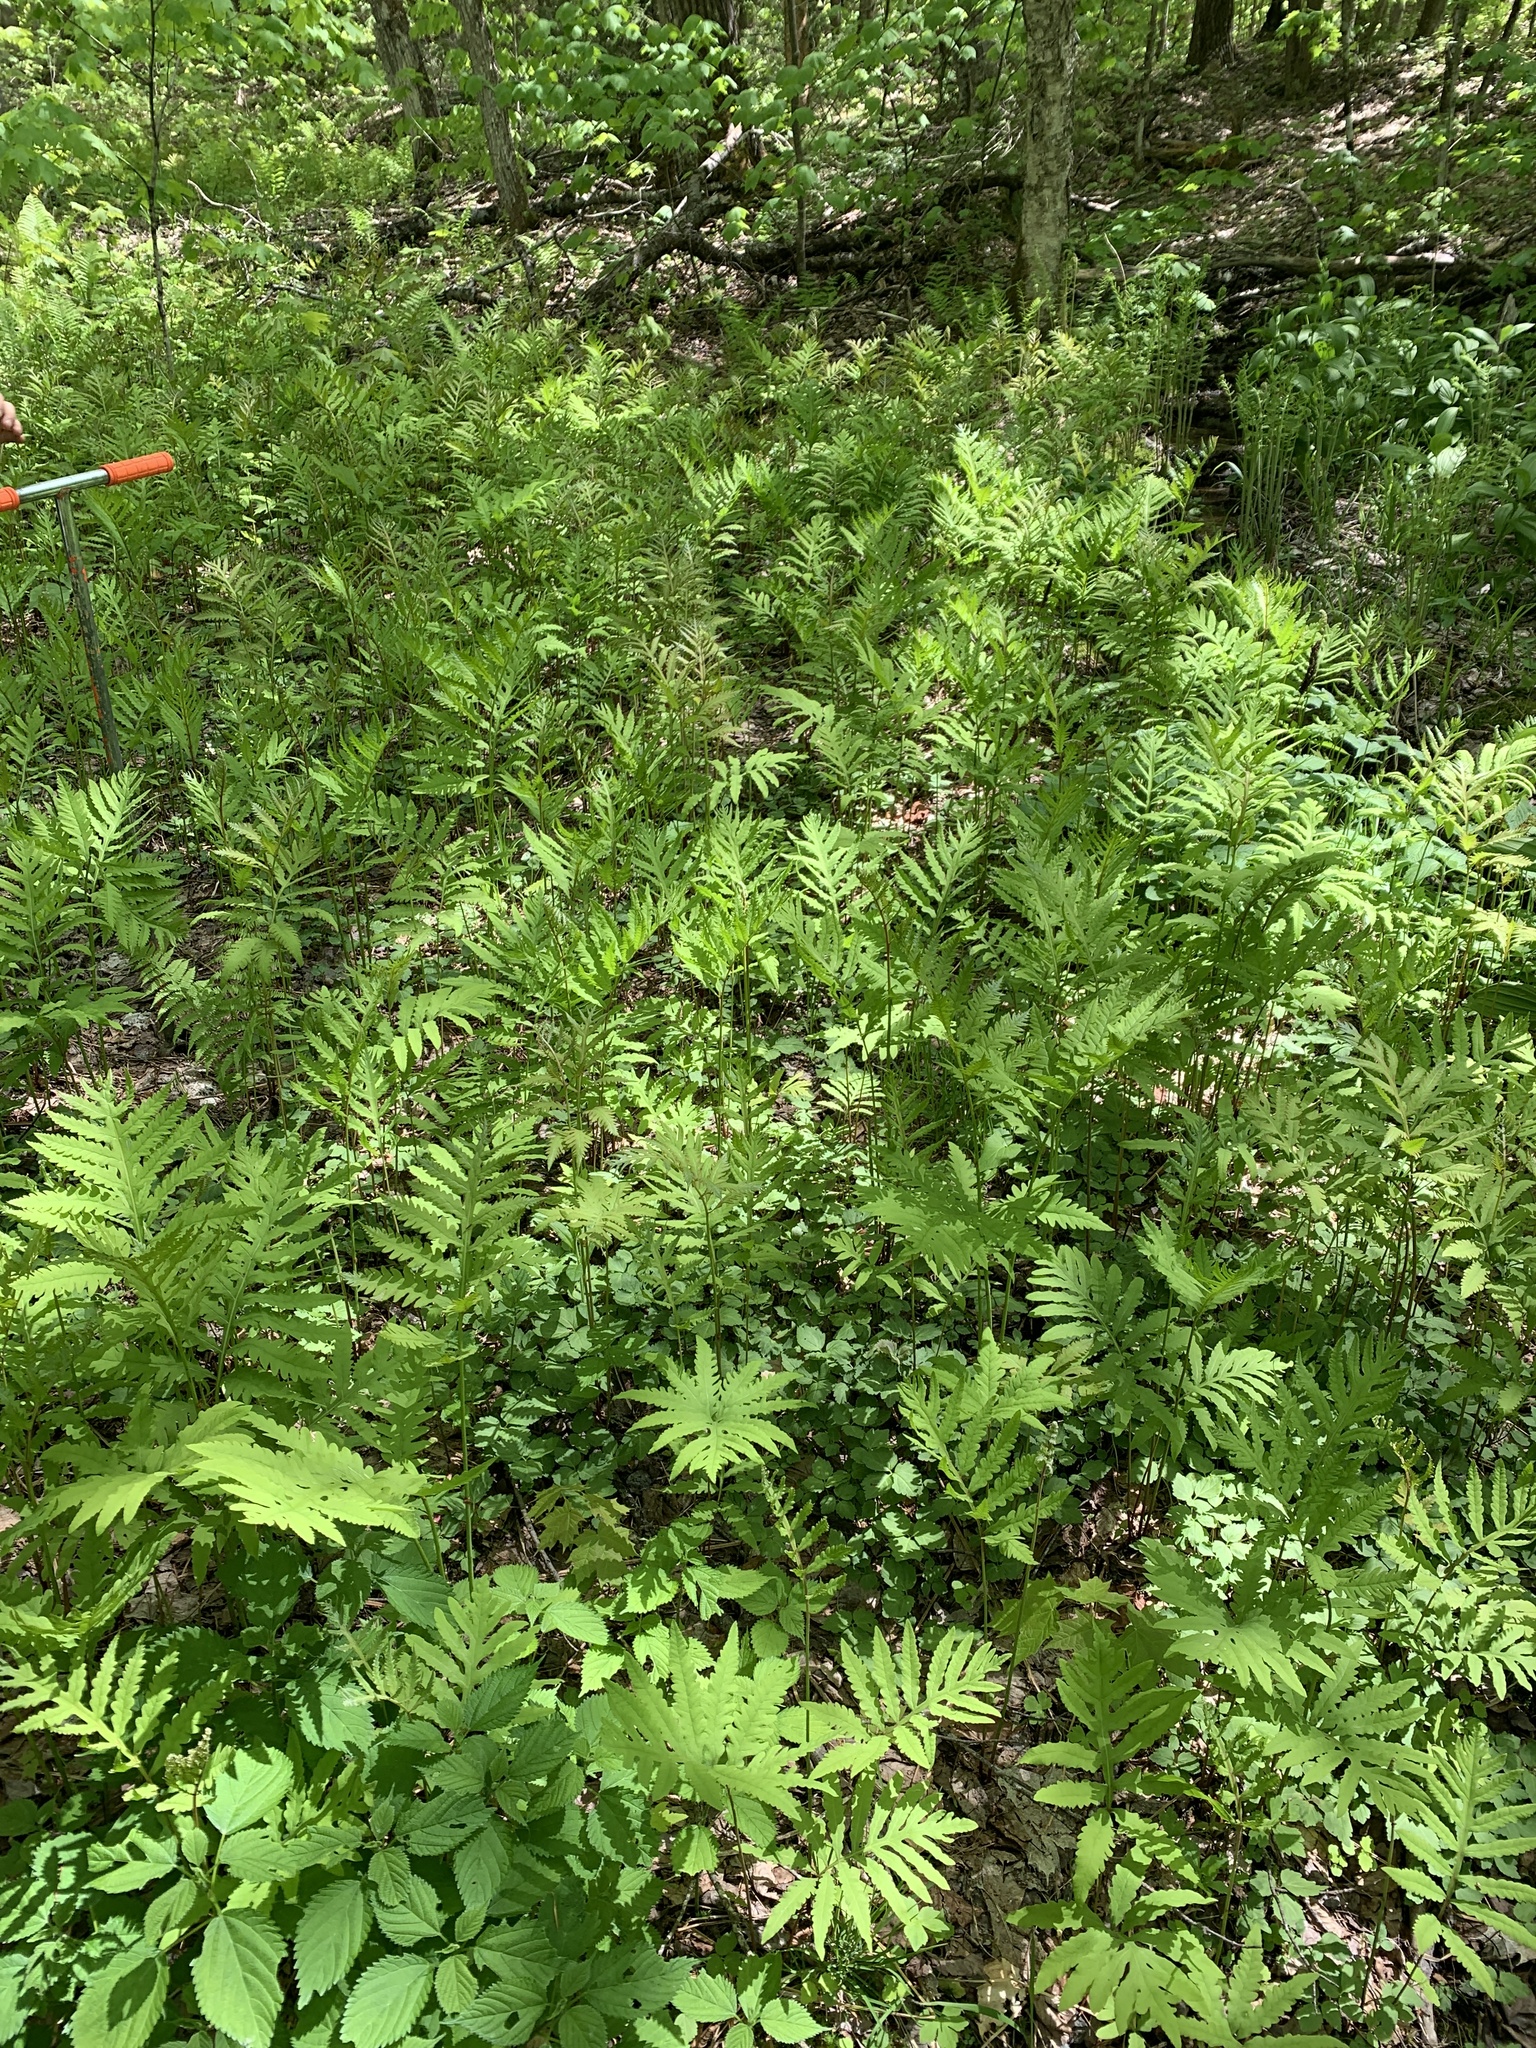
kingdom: Plantae
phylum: Tracheophyta
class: Polypodiopsida
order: Polypodiales
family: Onocleaceae
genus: Onoclea
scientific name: Onoclea sensibilis
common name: Sensitive fern
